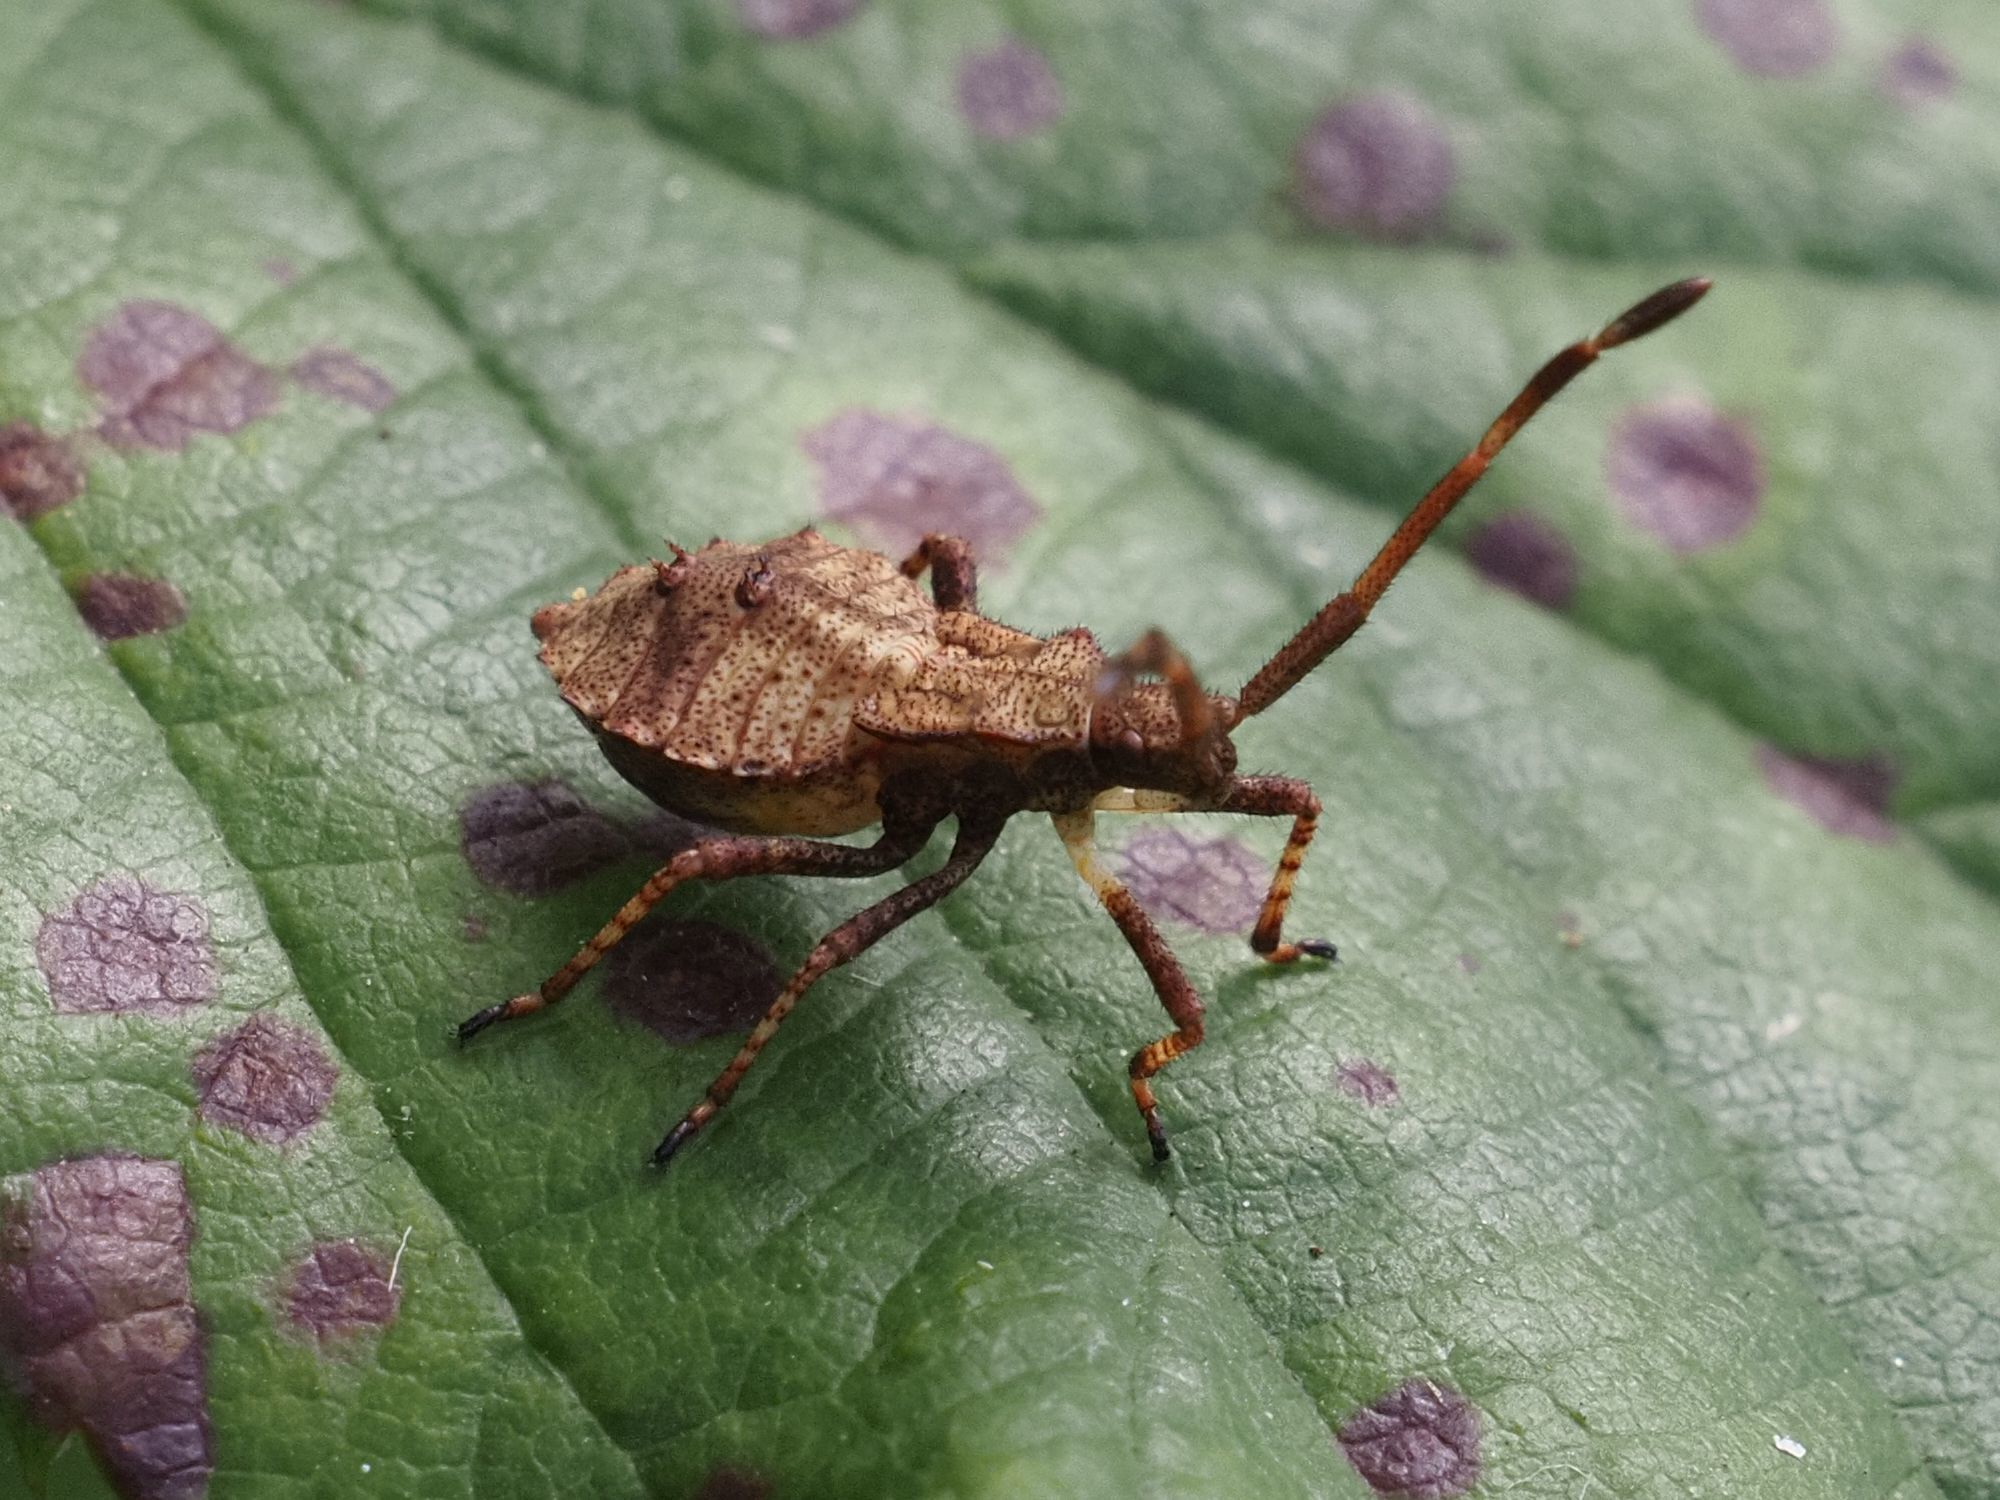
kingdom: Animalia
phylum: Arthropoda
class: Insecta
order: Hemiptera
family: Coreidae
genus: Coreus
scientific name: Coreus marginatus
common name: Dock bug
